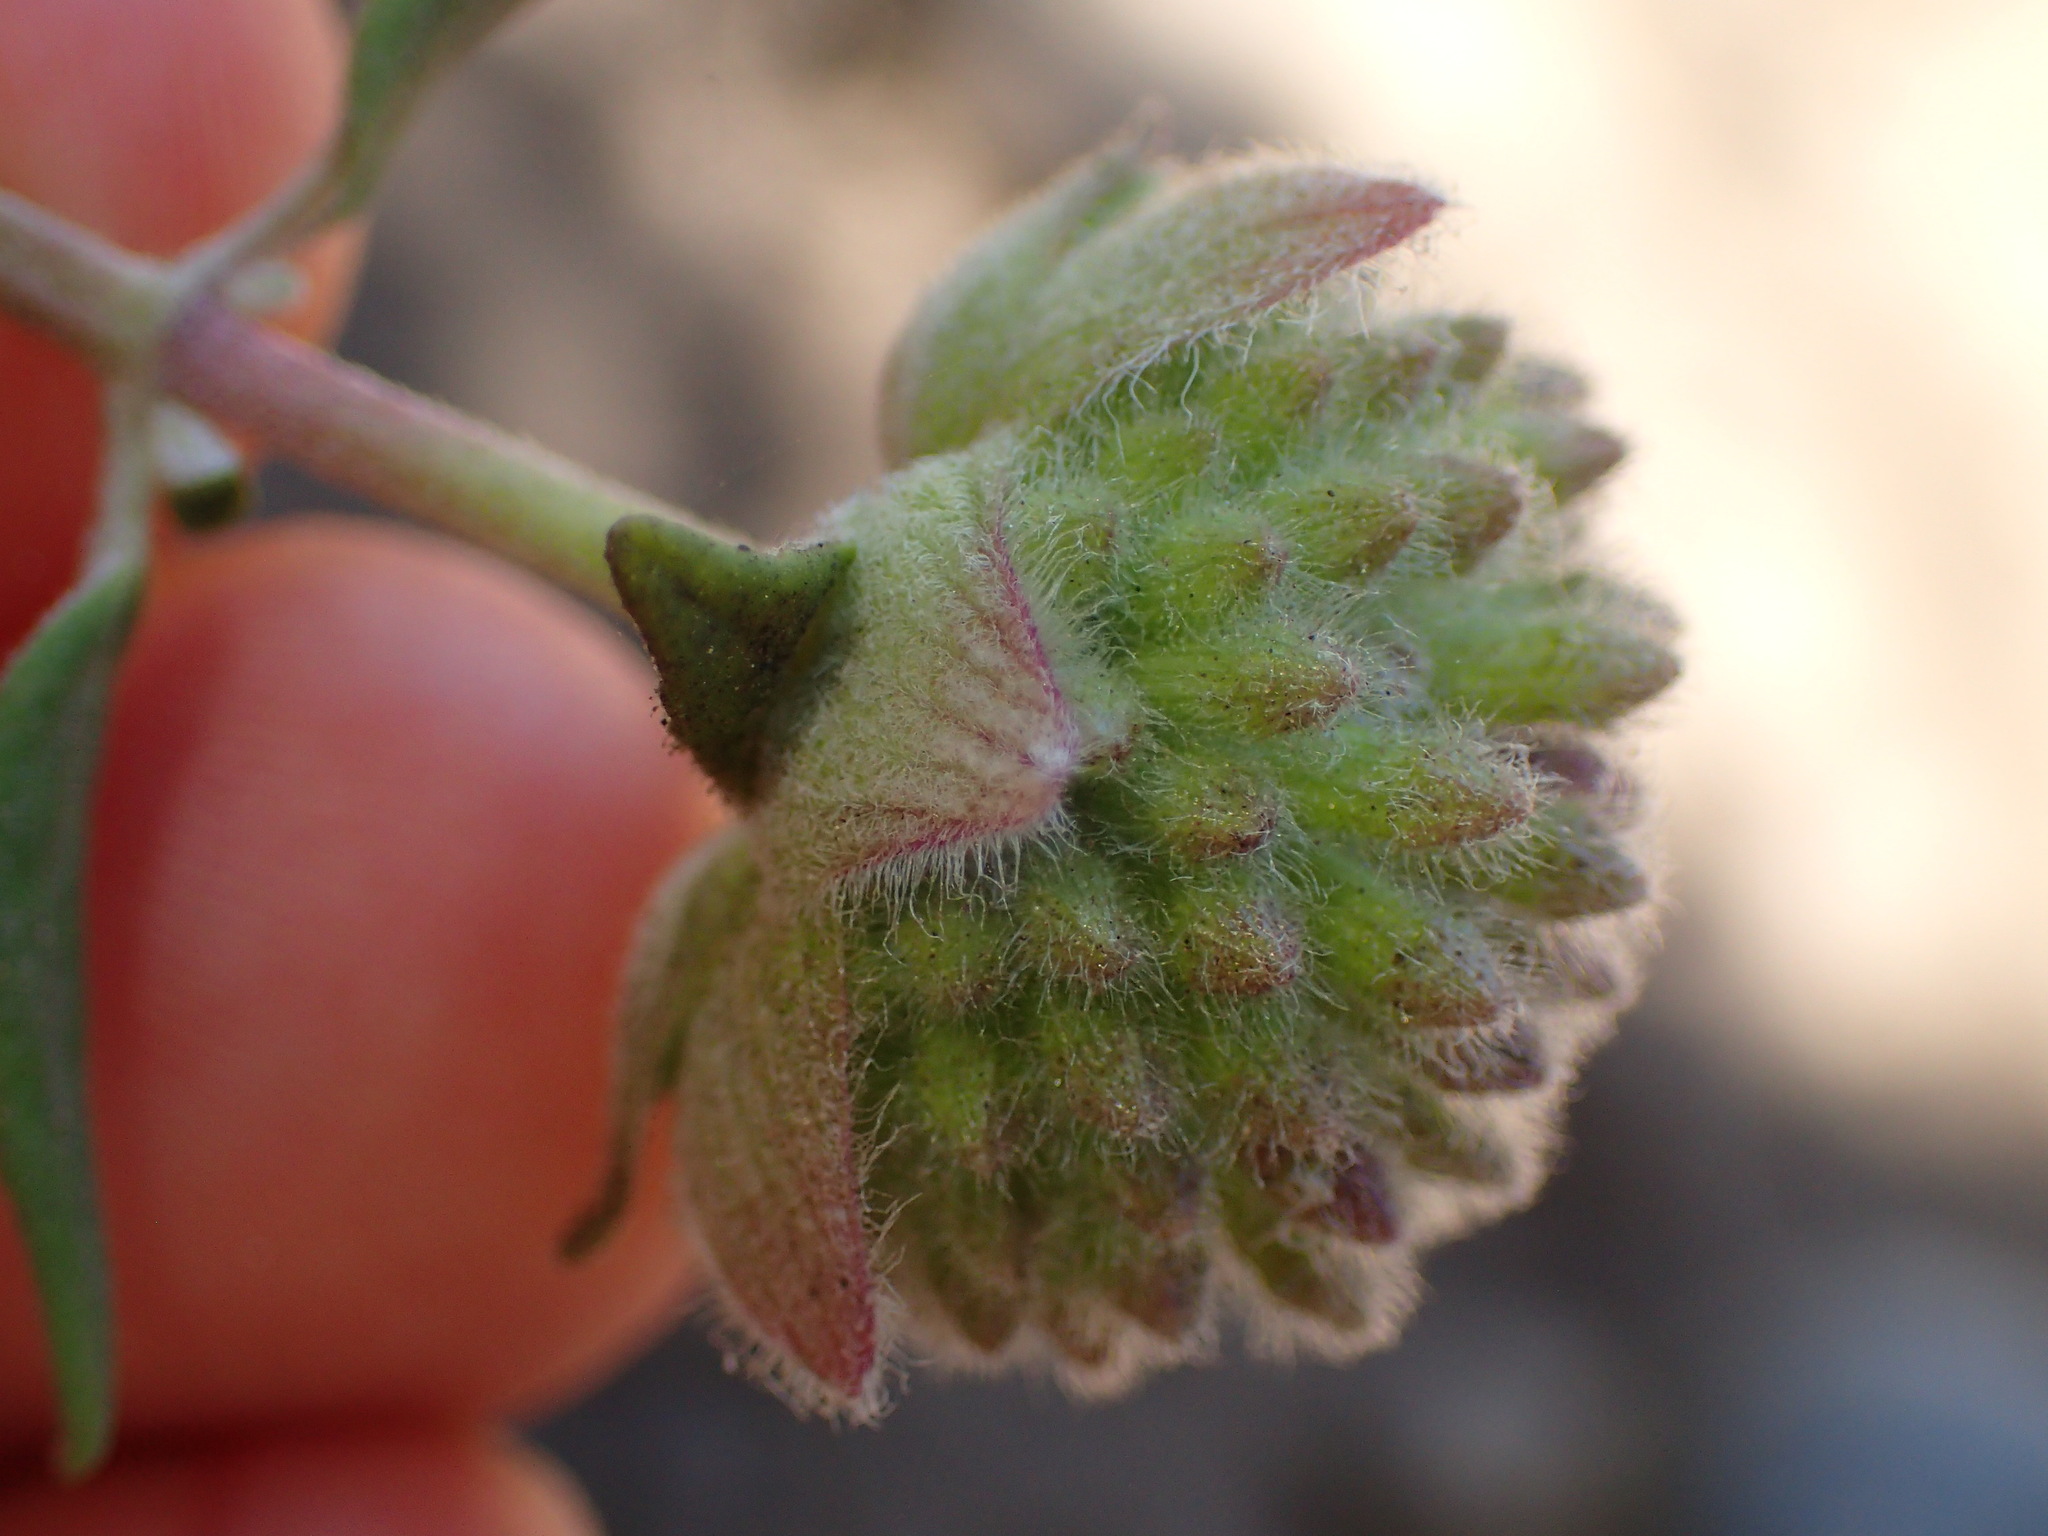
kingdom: Plantae
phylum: Tracheophyta
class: Magnoliopsida
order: Lamiales
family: Lamiaceae
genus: Monardella
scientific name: Monardella hypoleuca
